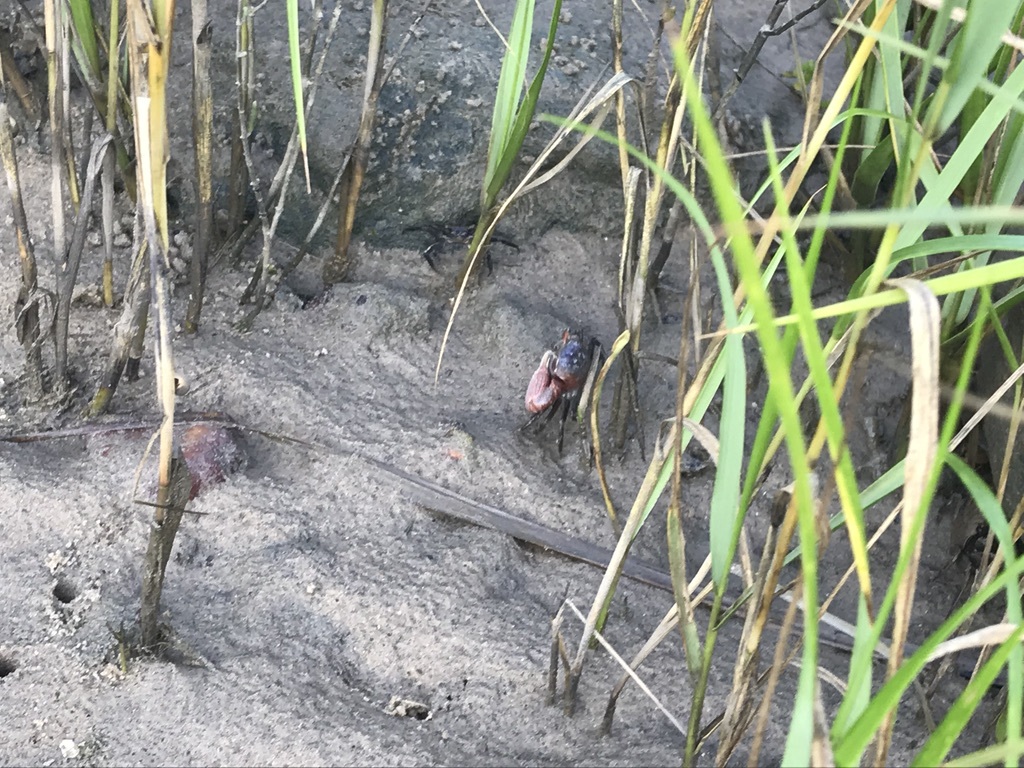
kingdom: Animalia
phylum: Arthropoda
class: Malacostraca
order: Decapoda
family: Ocypodidae
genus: Leptuca
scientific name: Leptuca pugilator
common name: Atlantic sand fiddler crab
